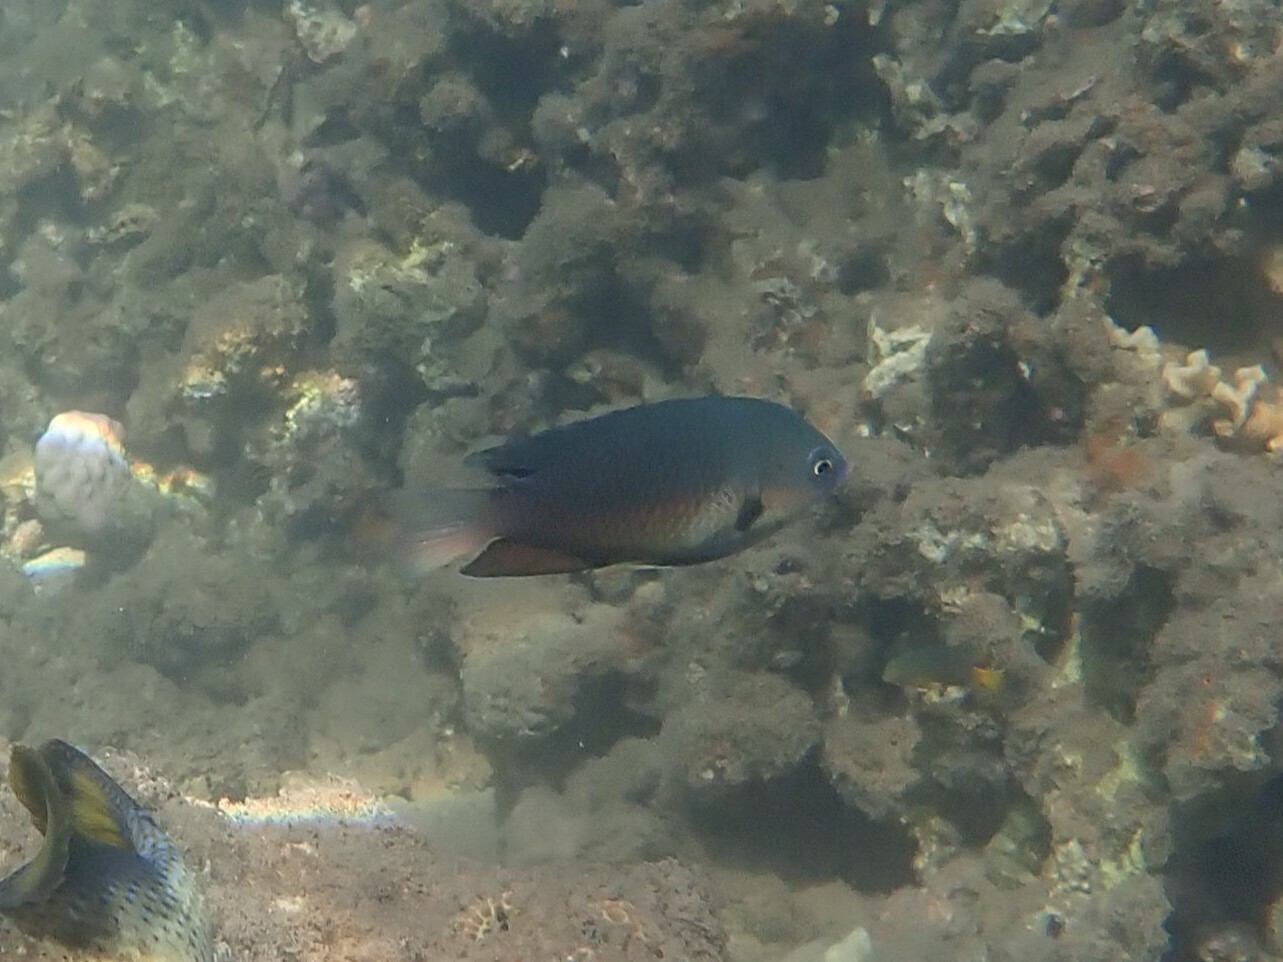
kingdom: Animalia
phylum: Chordata
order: Perciformes
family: Pomacentridae
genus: Pomacentrus
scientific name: Pomacentrus microspilus
